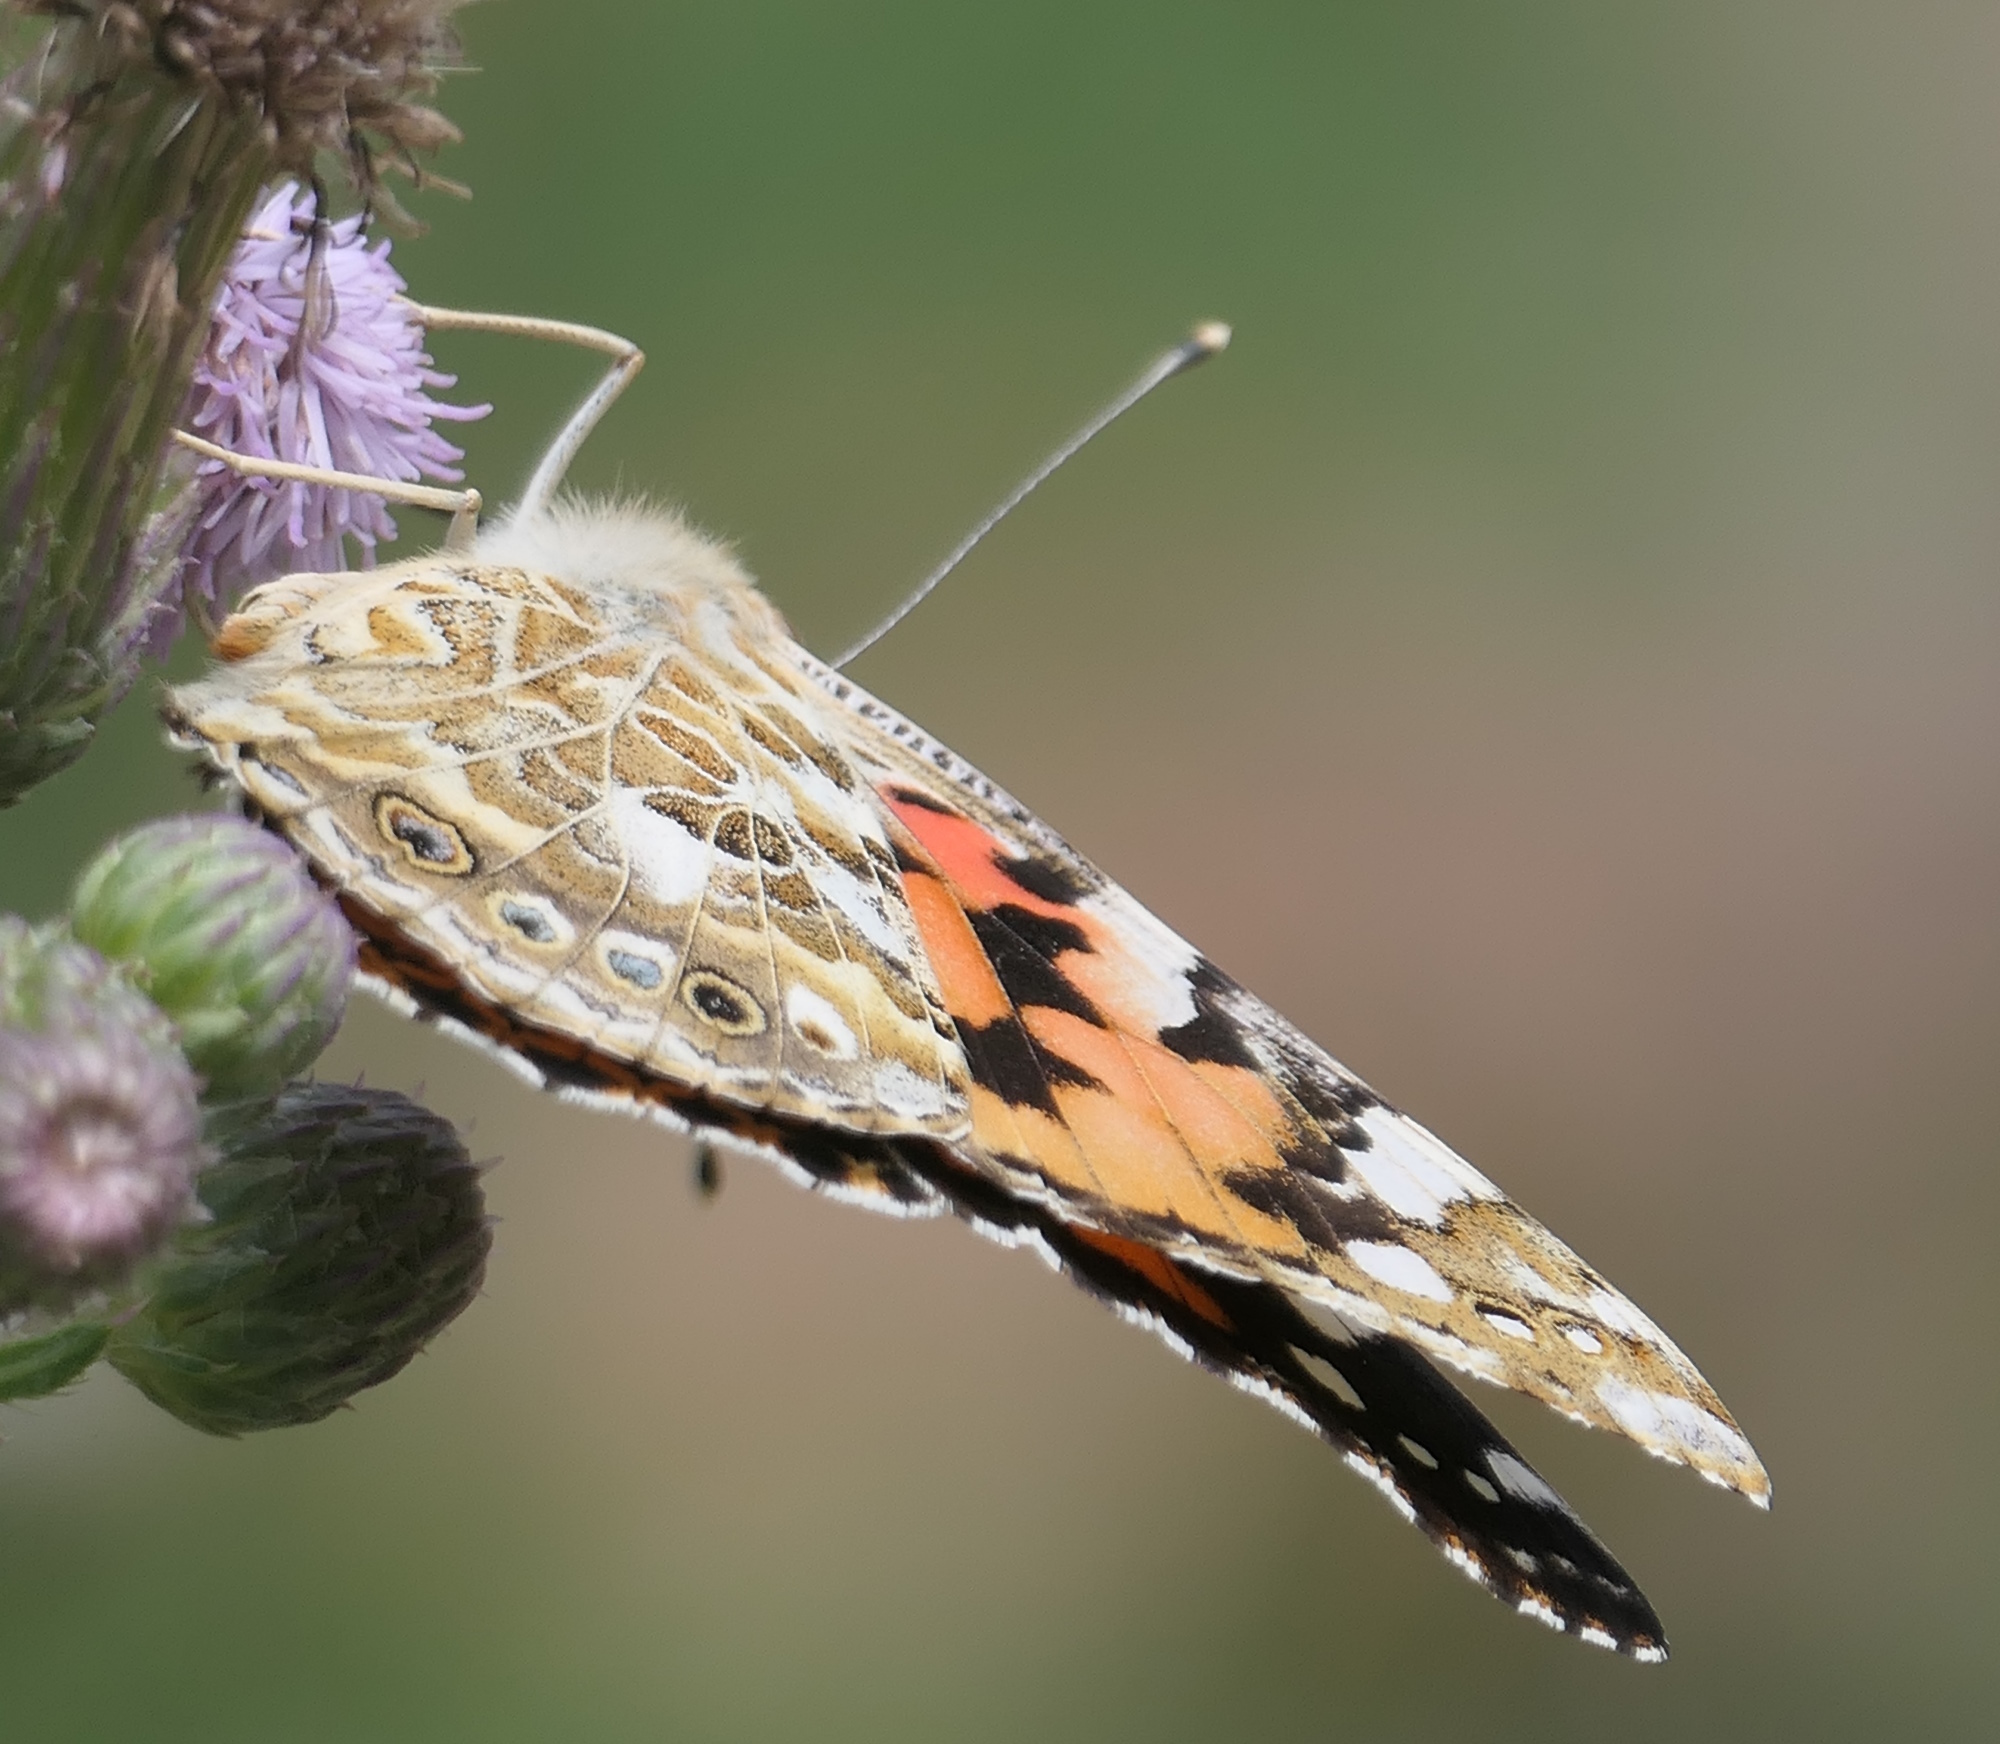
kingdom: Animalia
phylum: Arthropoda
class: Insecta
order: Lepidoptera
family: Nymphalidae
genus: Vanessa
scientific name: Vanessa cardui
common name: Painted lady
